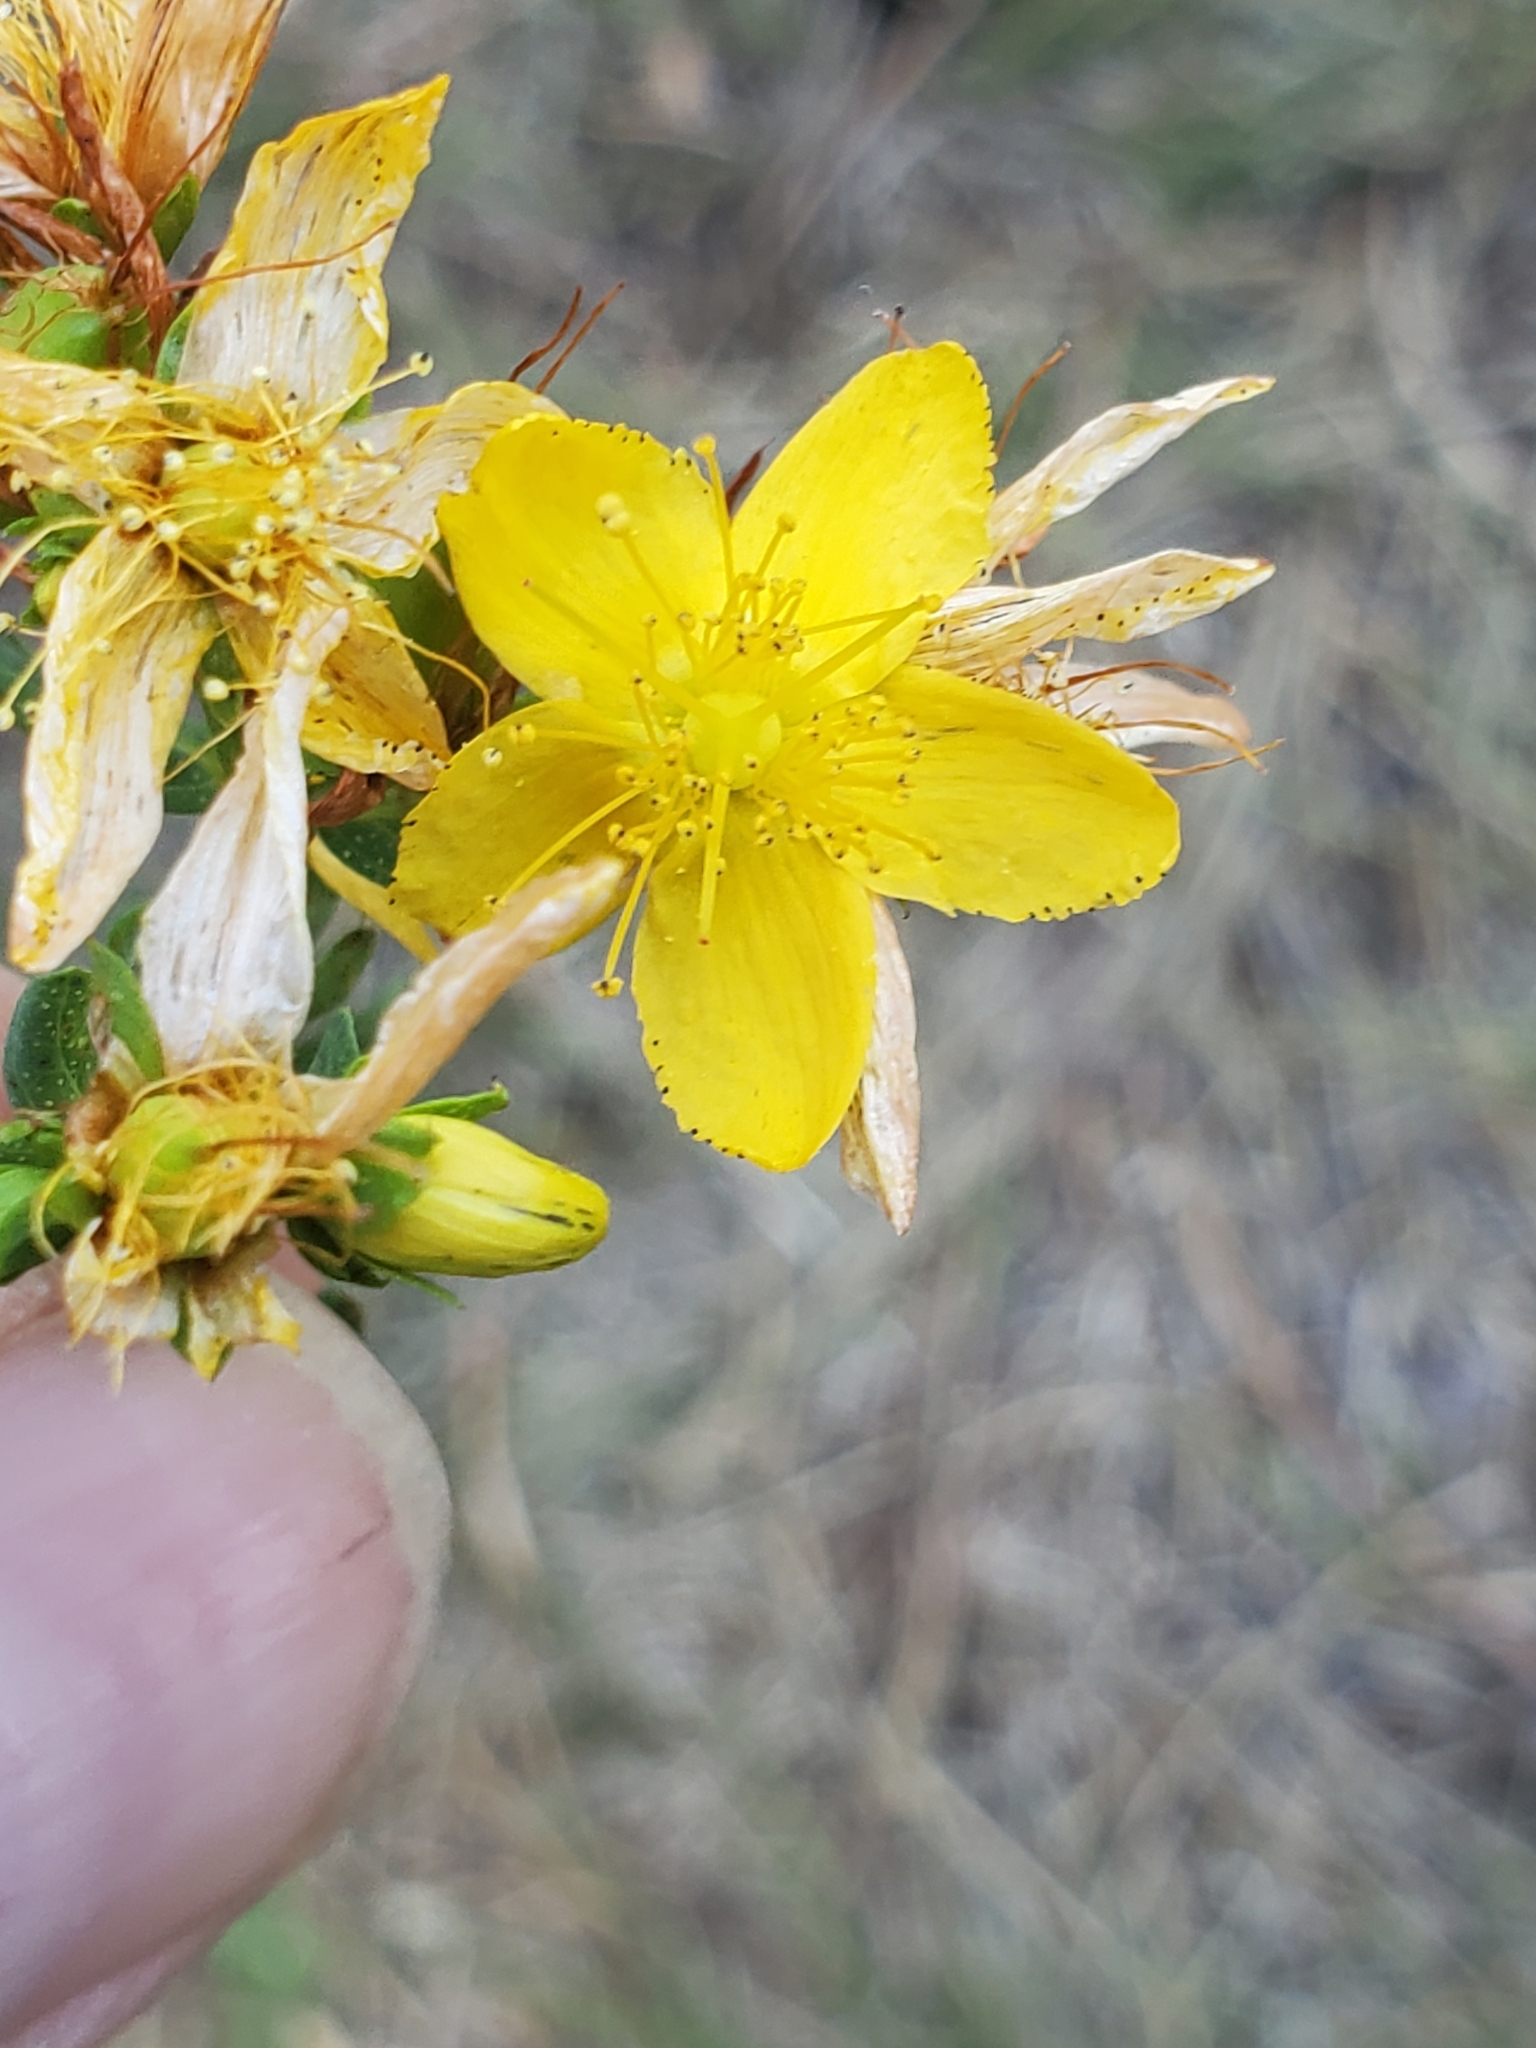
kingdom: Plantae
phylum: Tracheophyta
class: Magnoliopsida
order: Malpighiales
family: Hypericaceae
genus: Hypericum
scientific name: Hypericum perforatum
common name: Common st. johnswort
